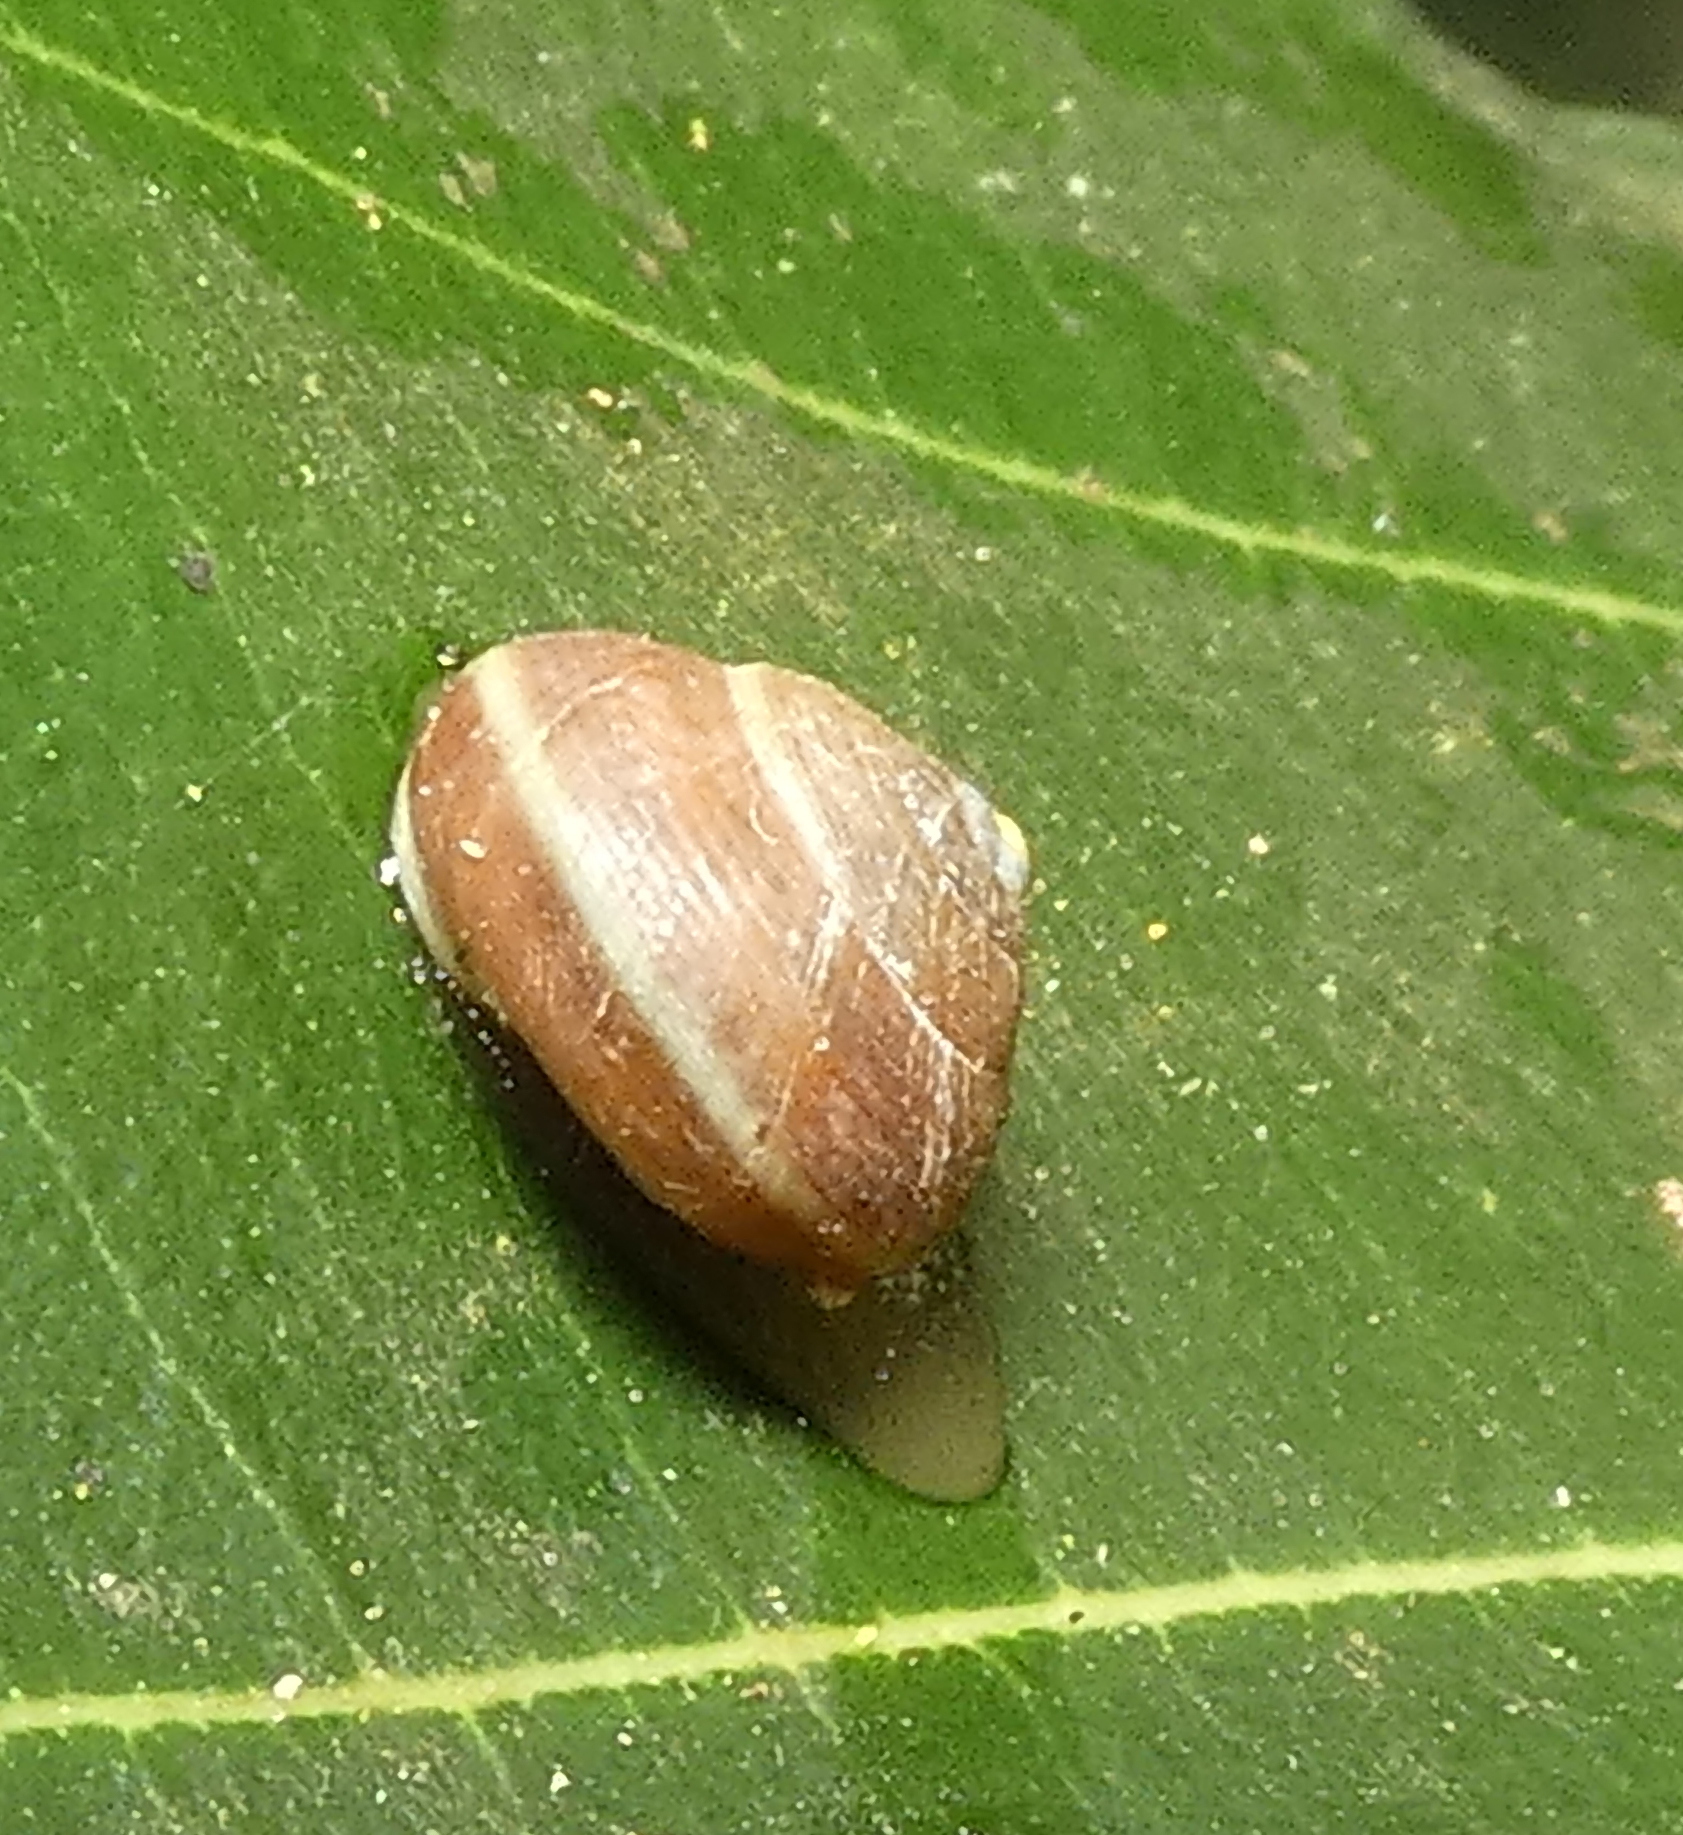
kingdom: Animalia
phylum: Mollusca
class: Gastropoda
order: Cycloneritida
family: Helicinidae
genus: Helicina
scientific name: Helicina variabilis
